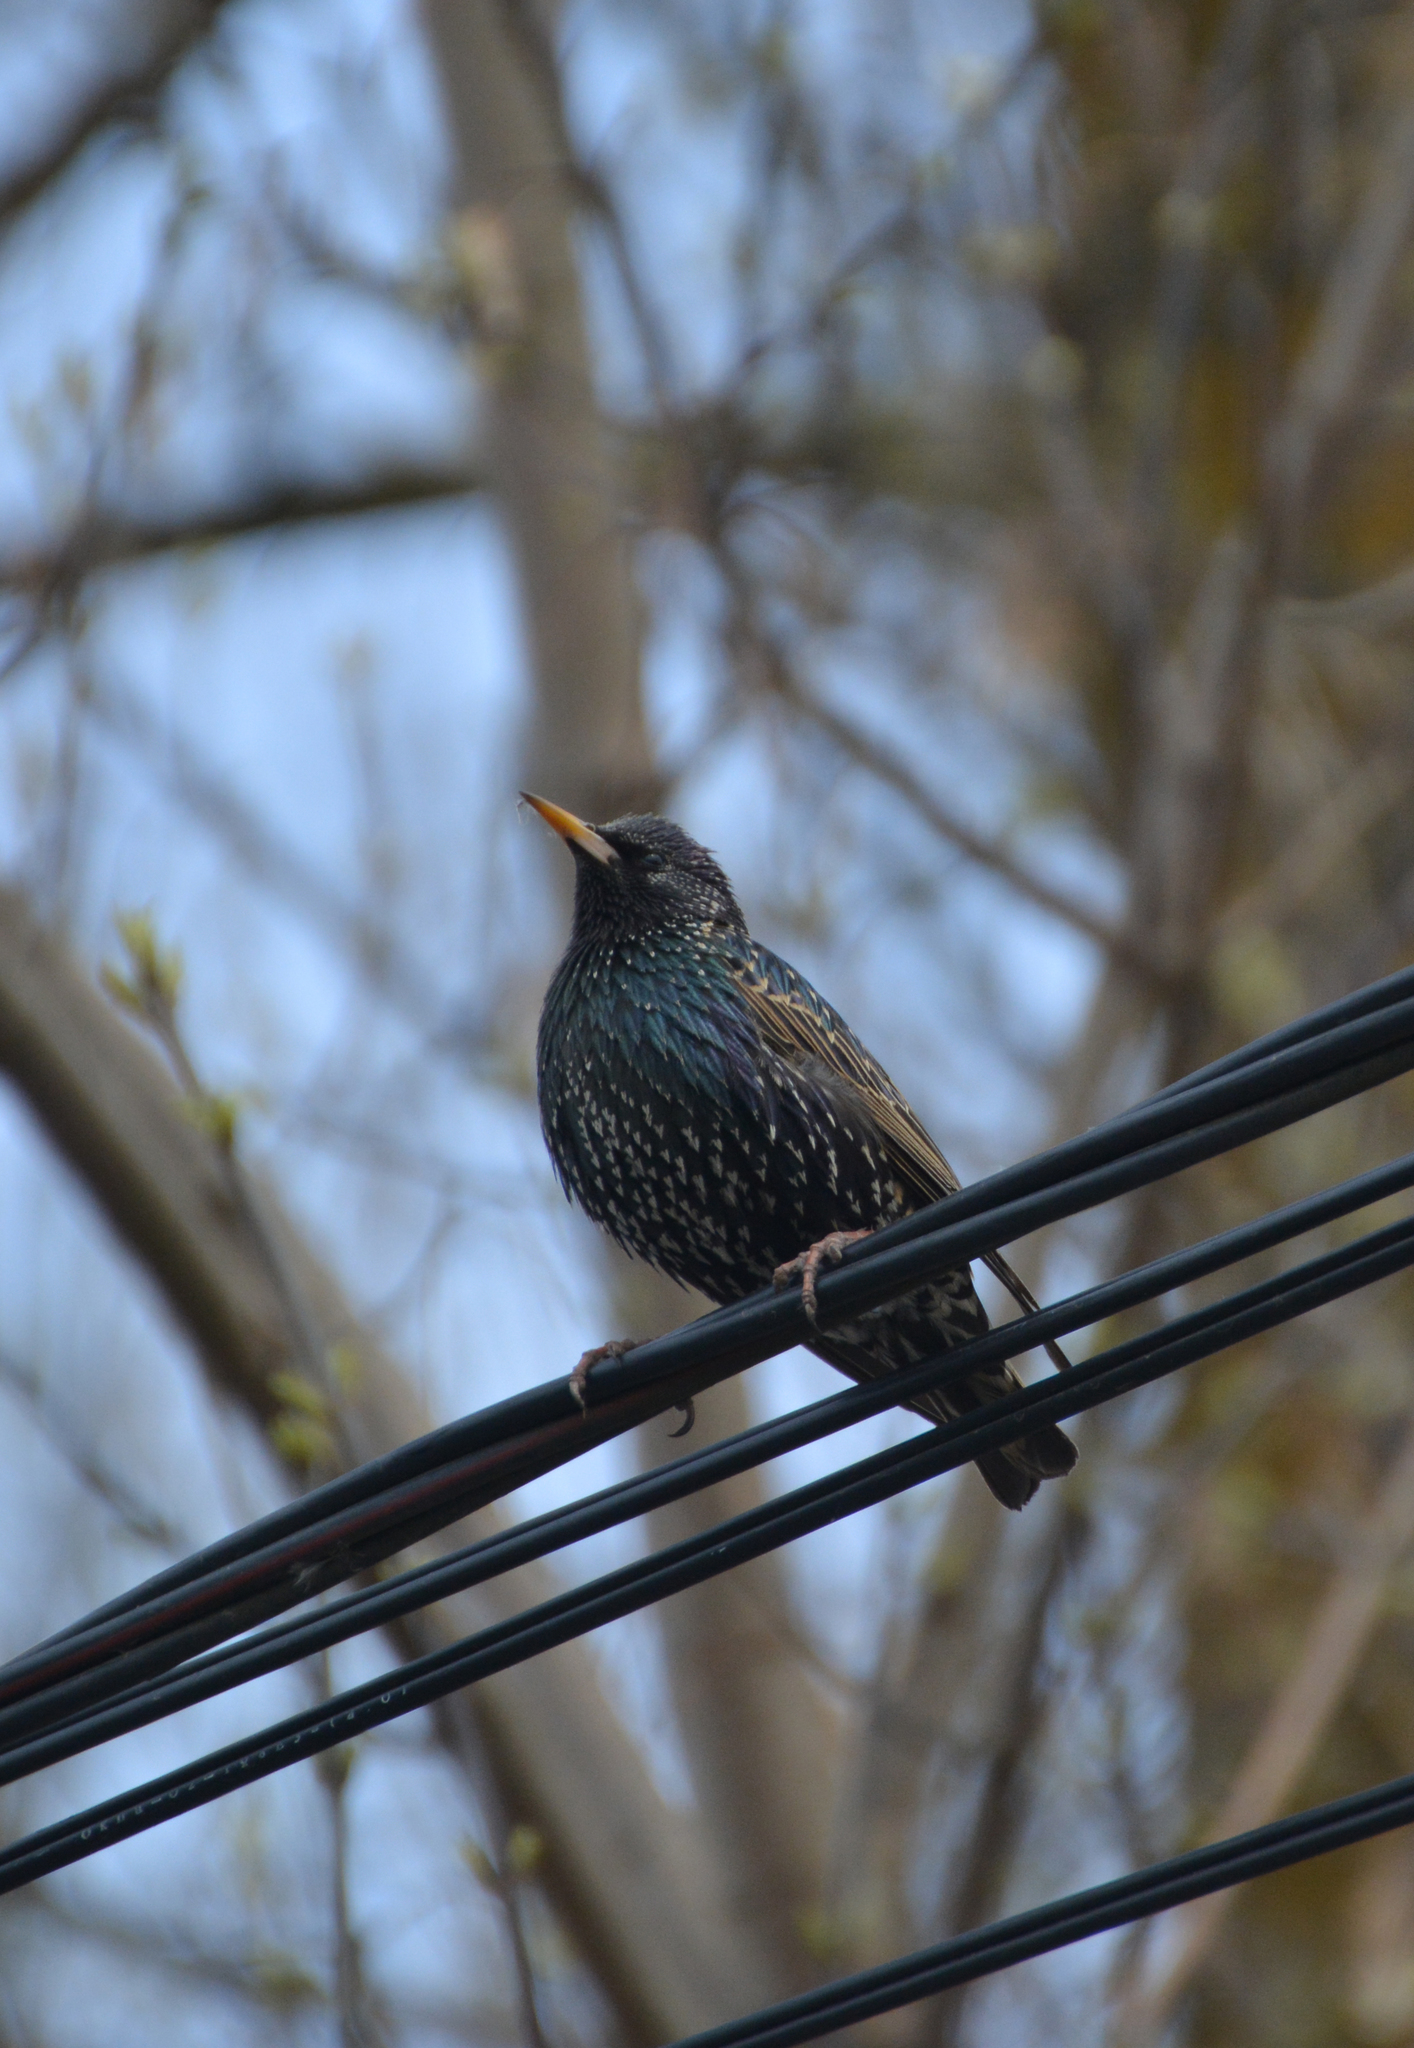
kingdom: Animalia
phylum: Chordata
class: Aves
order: Passeriformes
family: Sturnidae
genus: Sturnus
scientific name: Sturnus vulgaris
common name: Common starling
